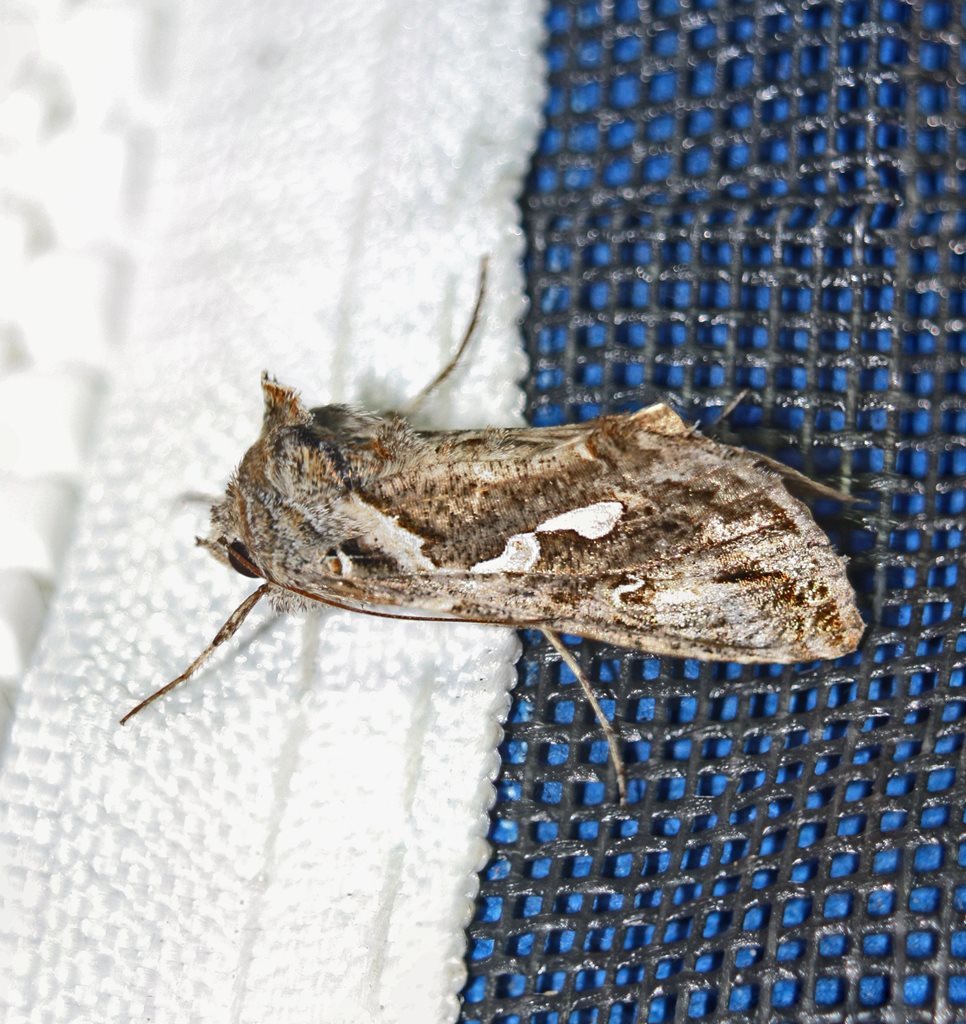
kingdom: Animalia
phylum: Arthropoda
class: Insecta
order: Lepidoptera
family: Noctuidae
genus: Chrysodeixis
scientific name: Chrysodeixis argentifera
